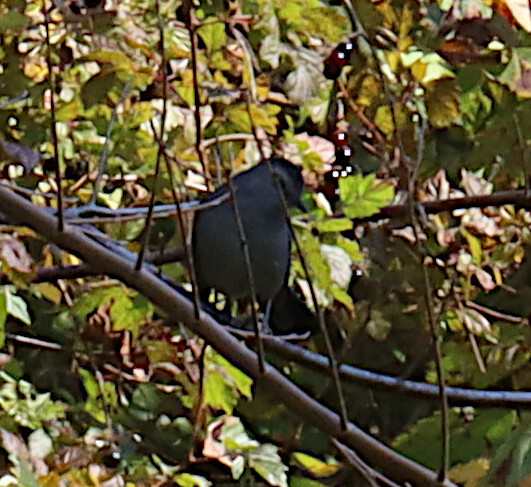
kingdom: Animalia
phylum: Chordata
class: Aves
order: Passeriformes
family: Mimidae
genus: Dumetella
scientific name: Dumetella carolinensis
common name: Gray catbird
